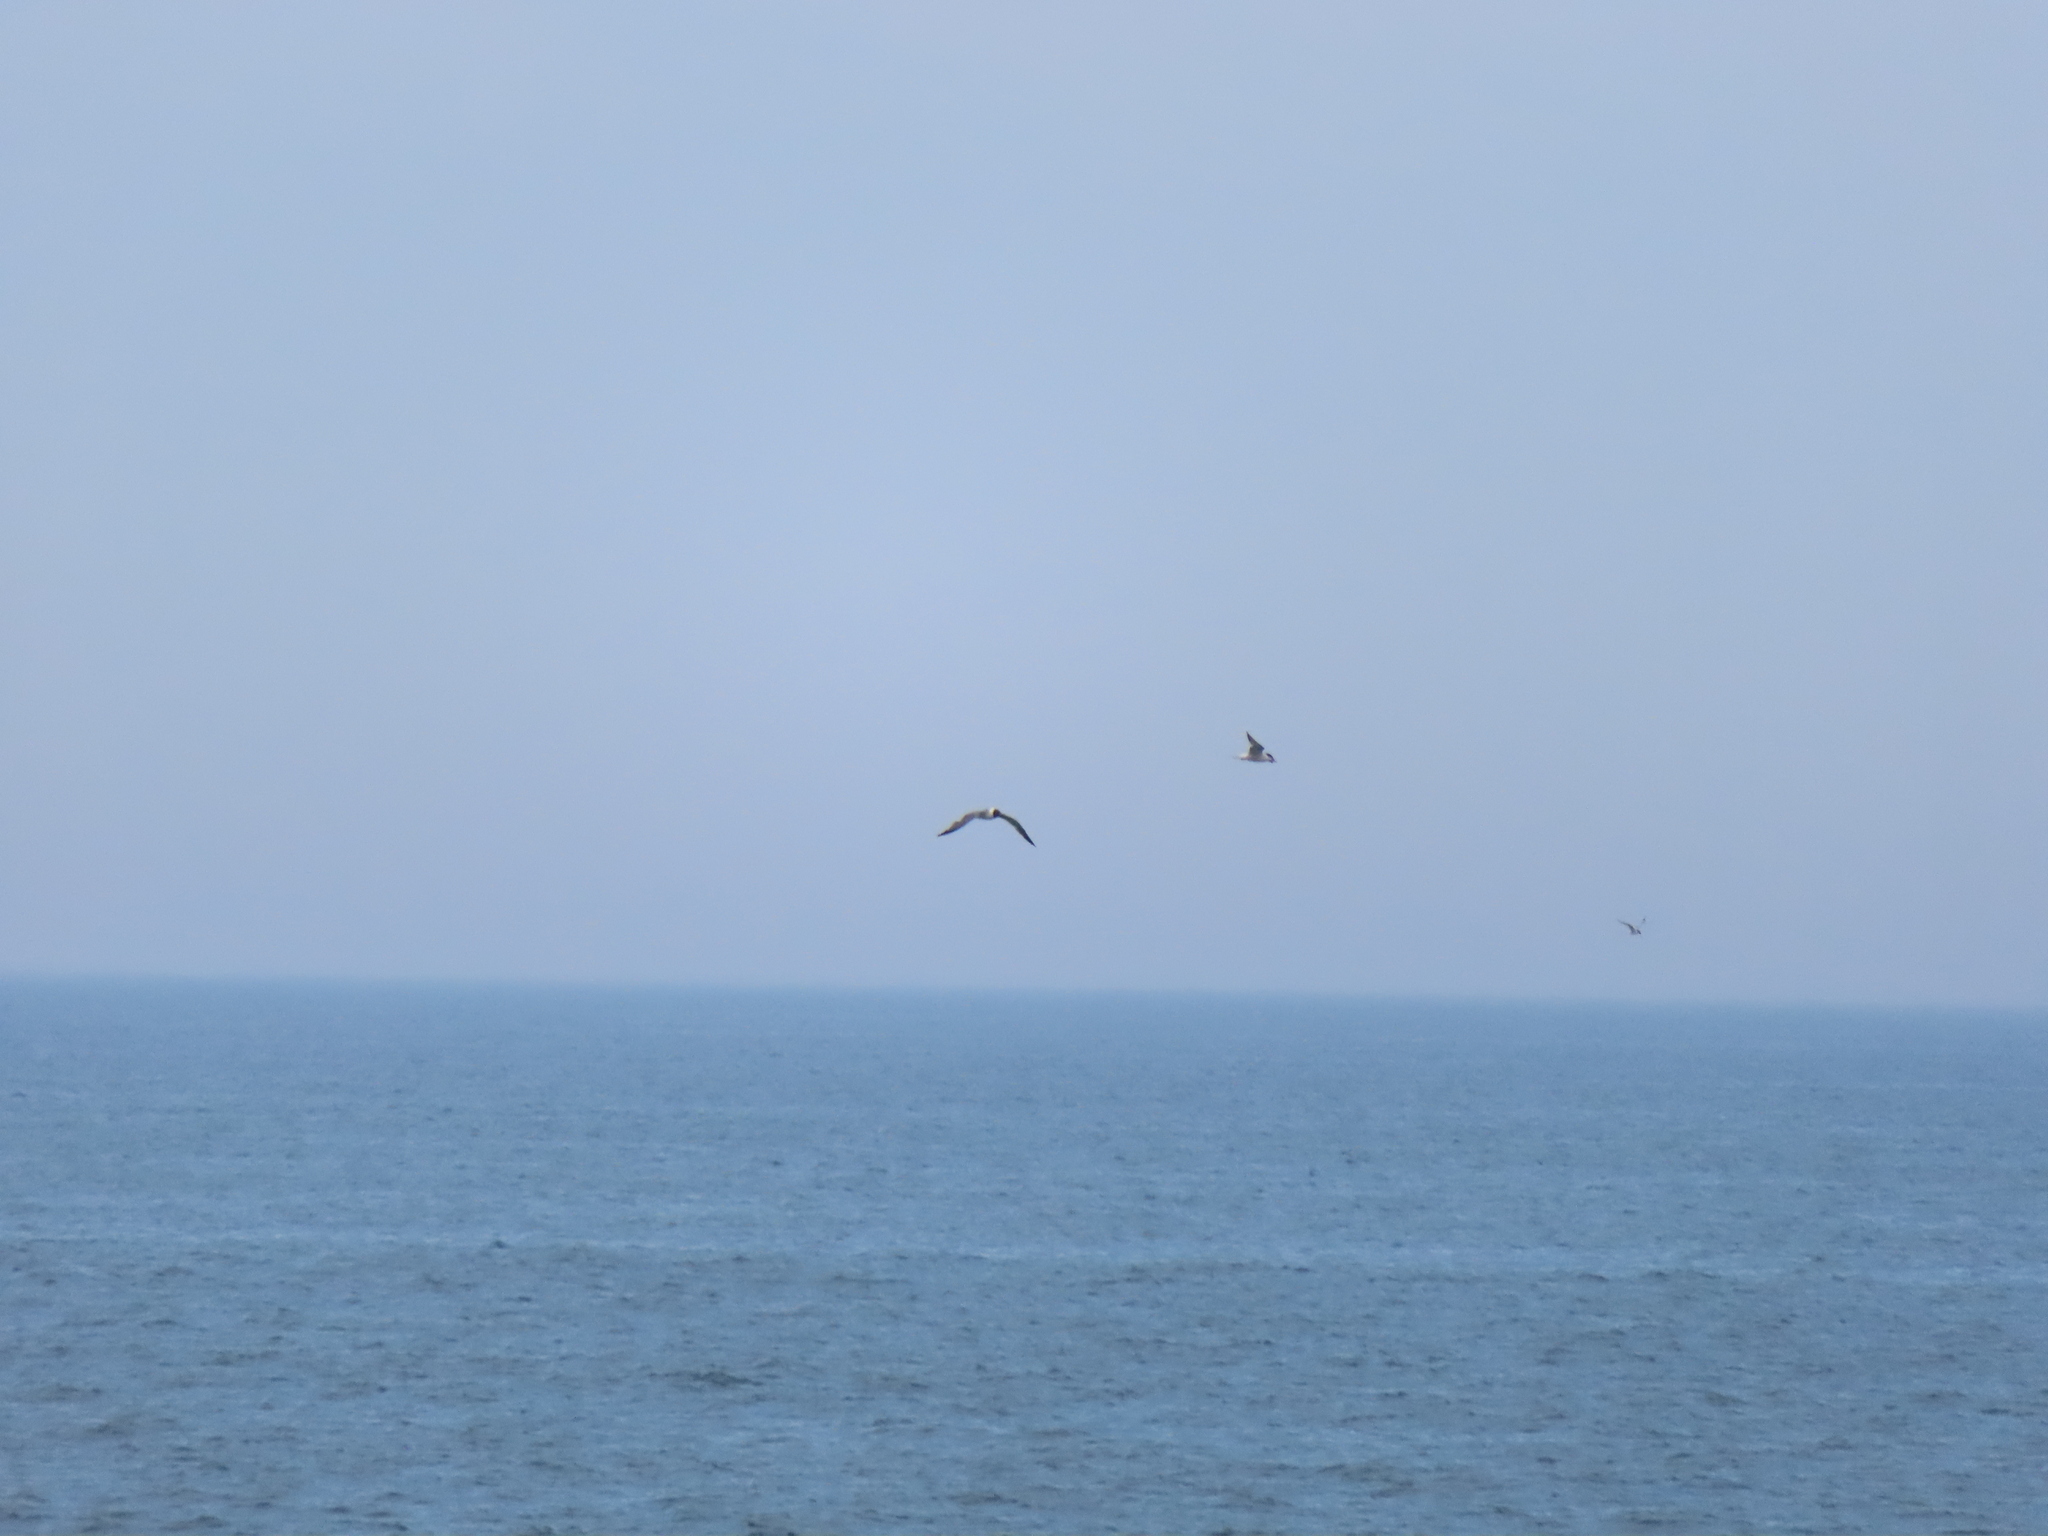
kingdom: Animalia
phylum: Chordata
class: Aves
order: Charadriiformes
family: Laridae
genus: Leucophaeus
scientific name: Leucophaeus atricilla
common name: Laughing gull
